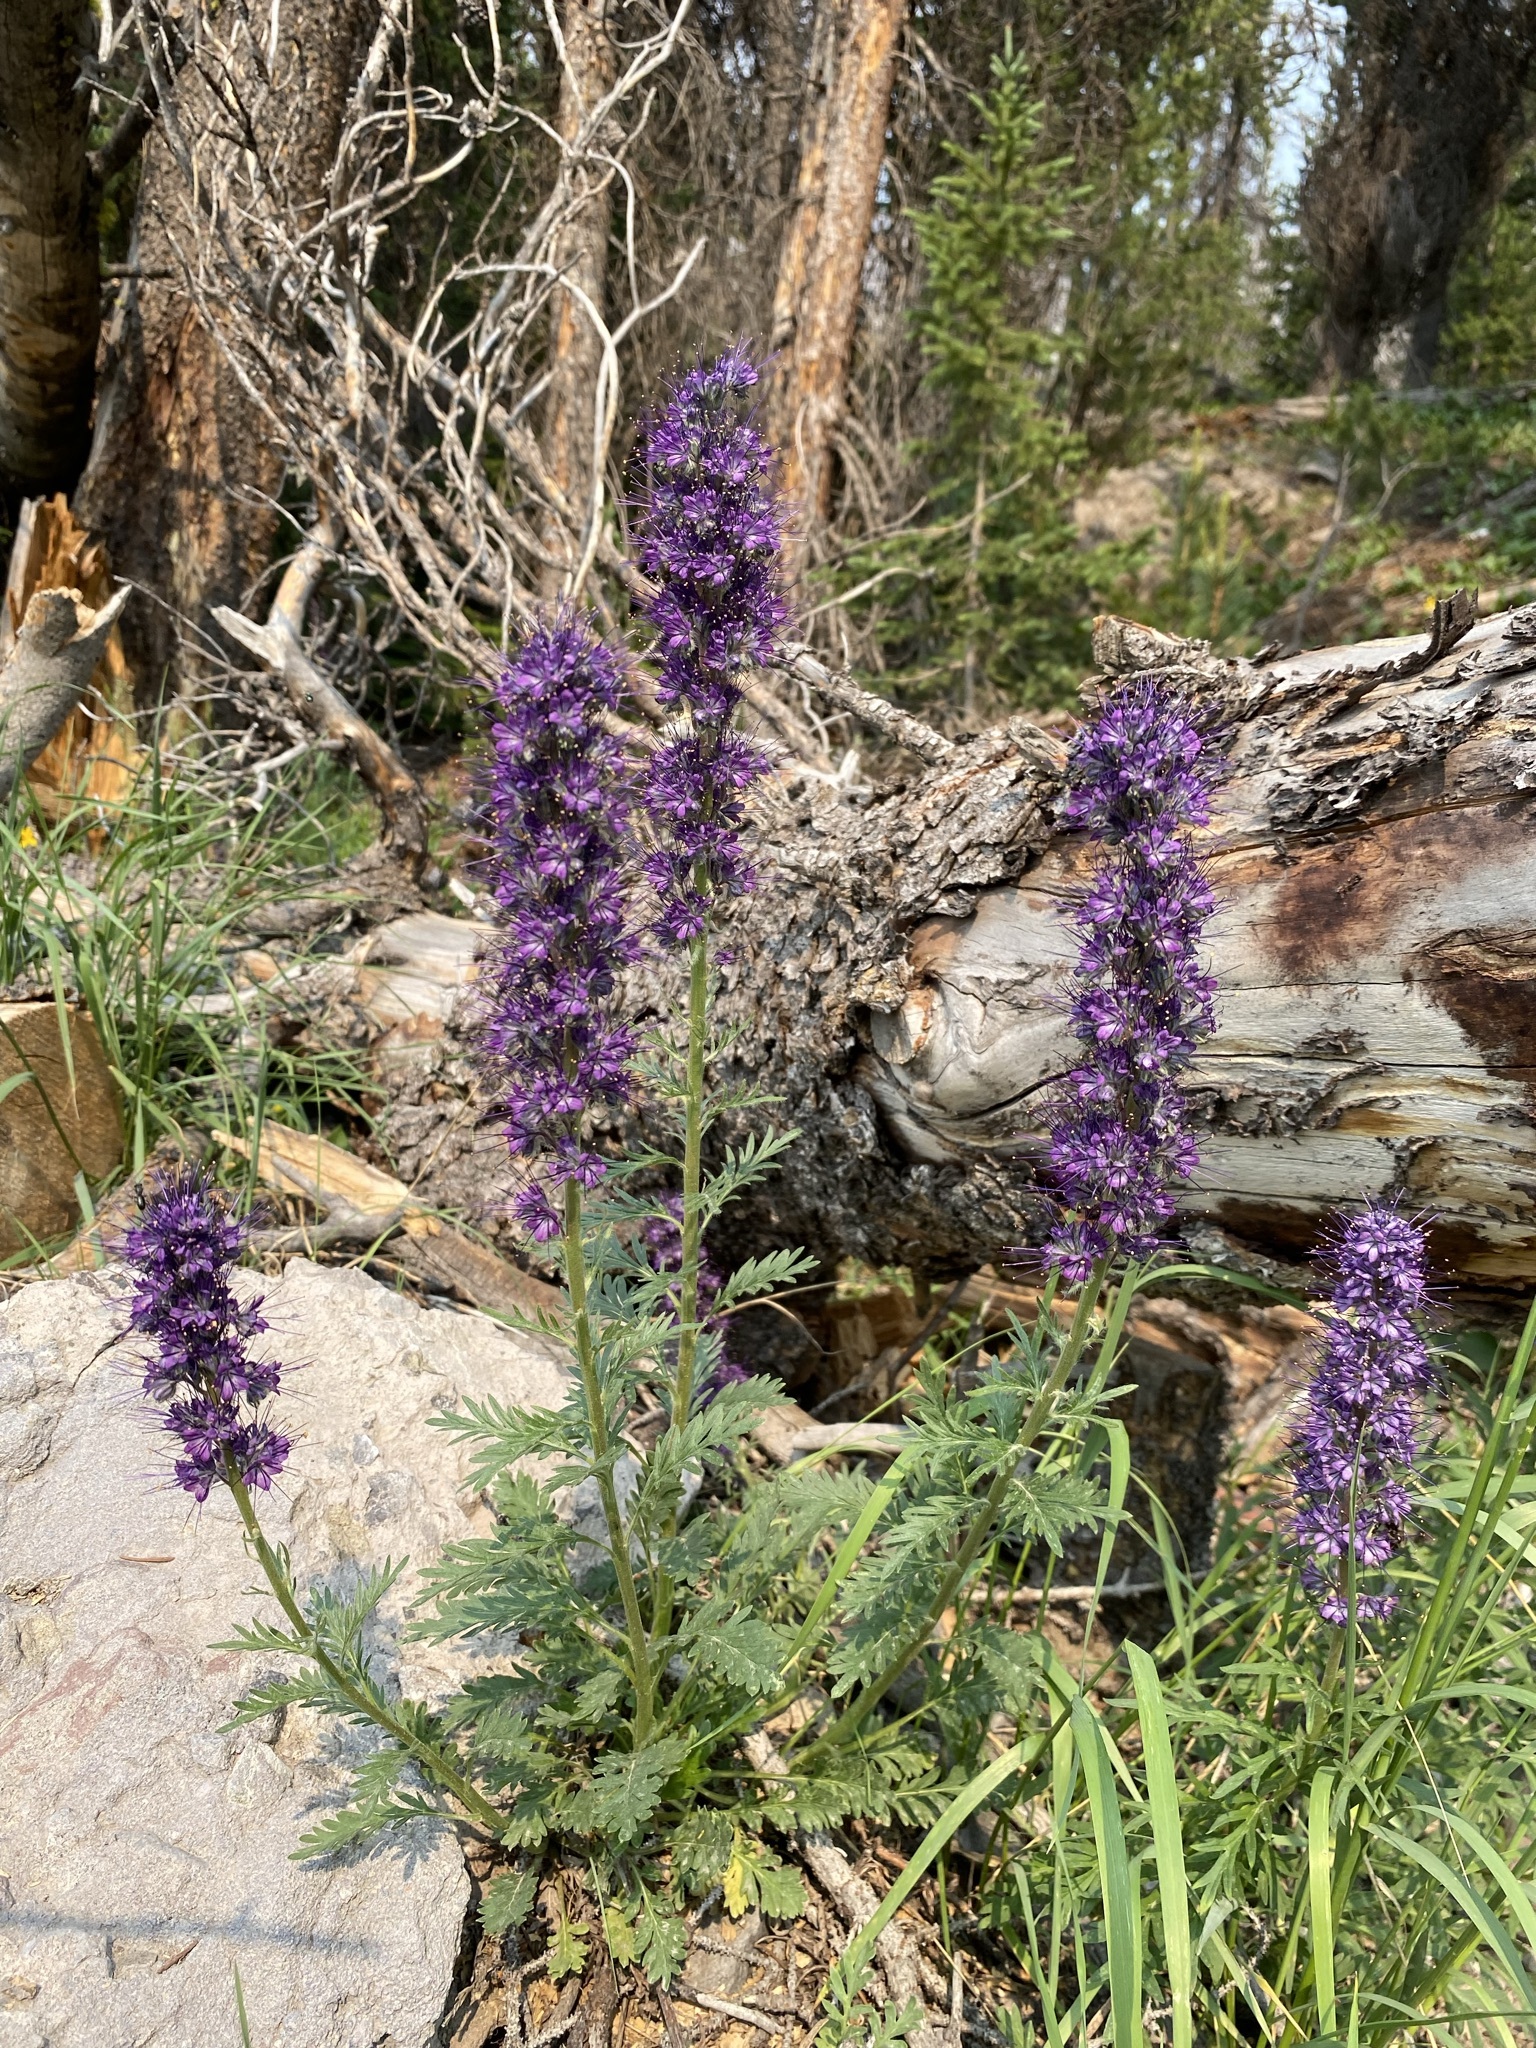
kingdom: Plantae
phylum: Tracheophyta
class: Magnoliopsida
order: Boraginales
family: Hydrophyllaceae
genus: Phacelia
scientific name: Phacelia sericea
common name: Silky phacelia
